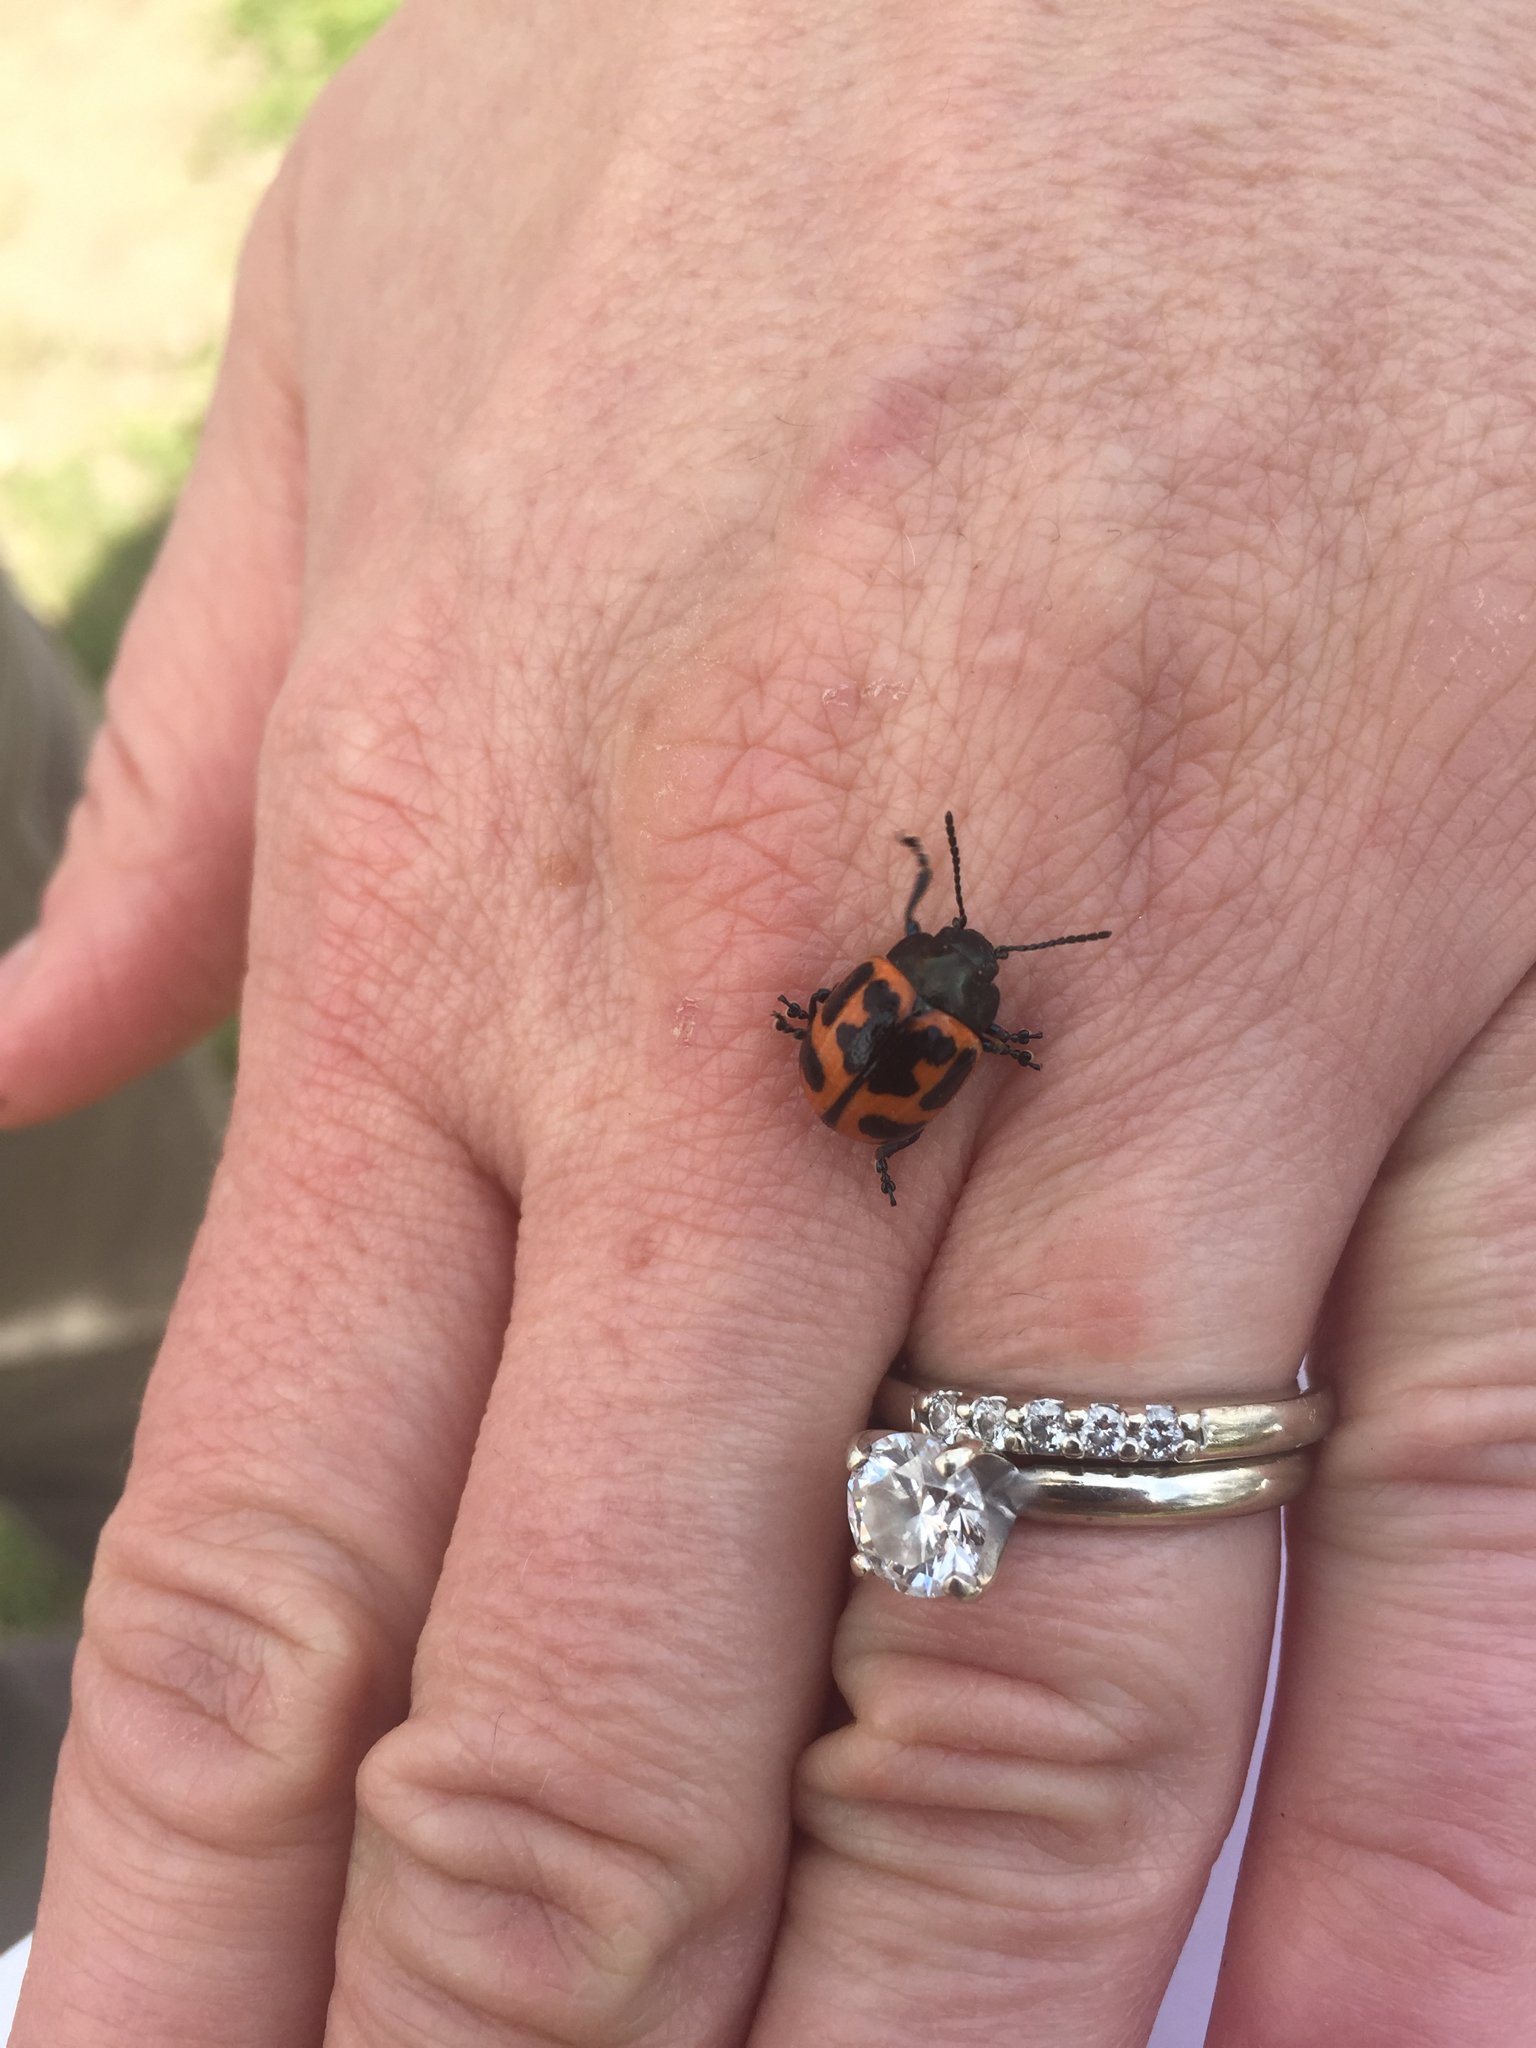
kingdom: Animalia
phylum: Arthropoda
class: Insecta
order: Coleoptera
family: Chrysomelidae
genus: Labidomera
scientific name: Labidomera clivicollis
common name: Swamp milkweed leaf beetle
